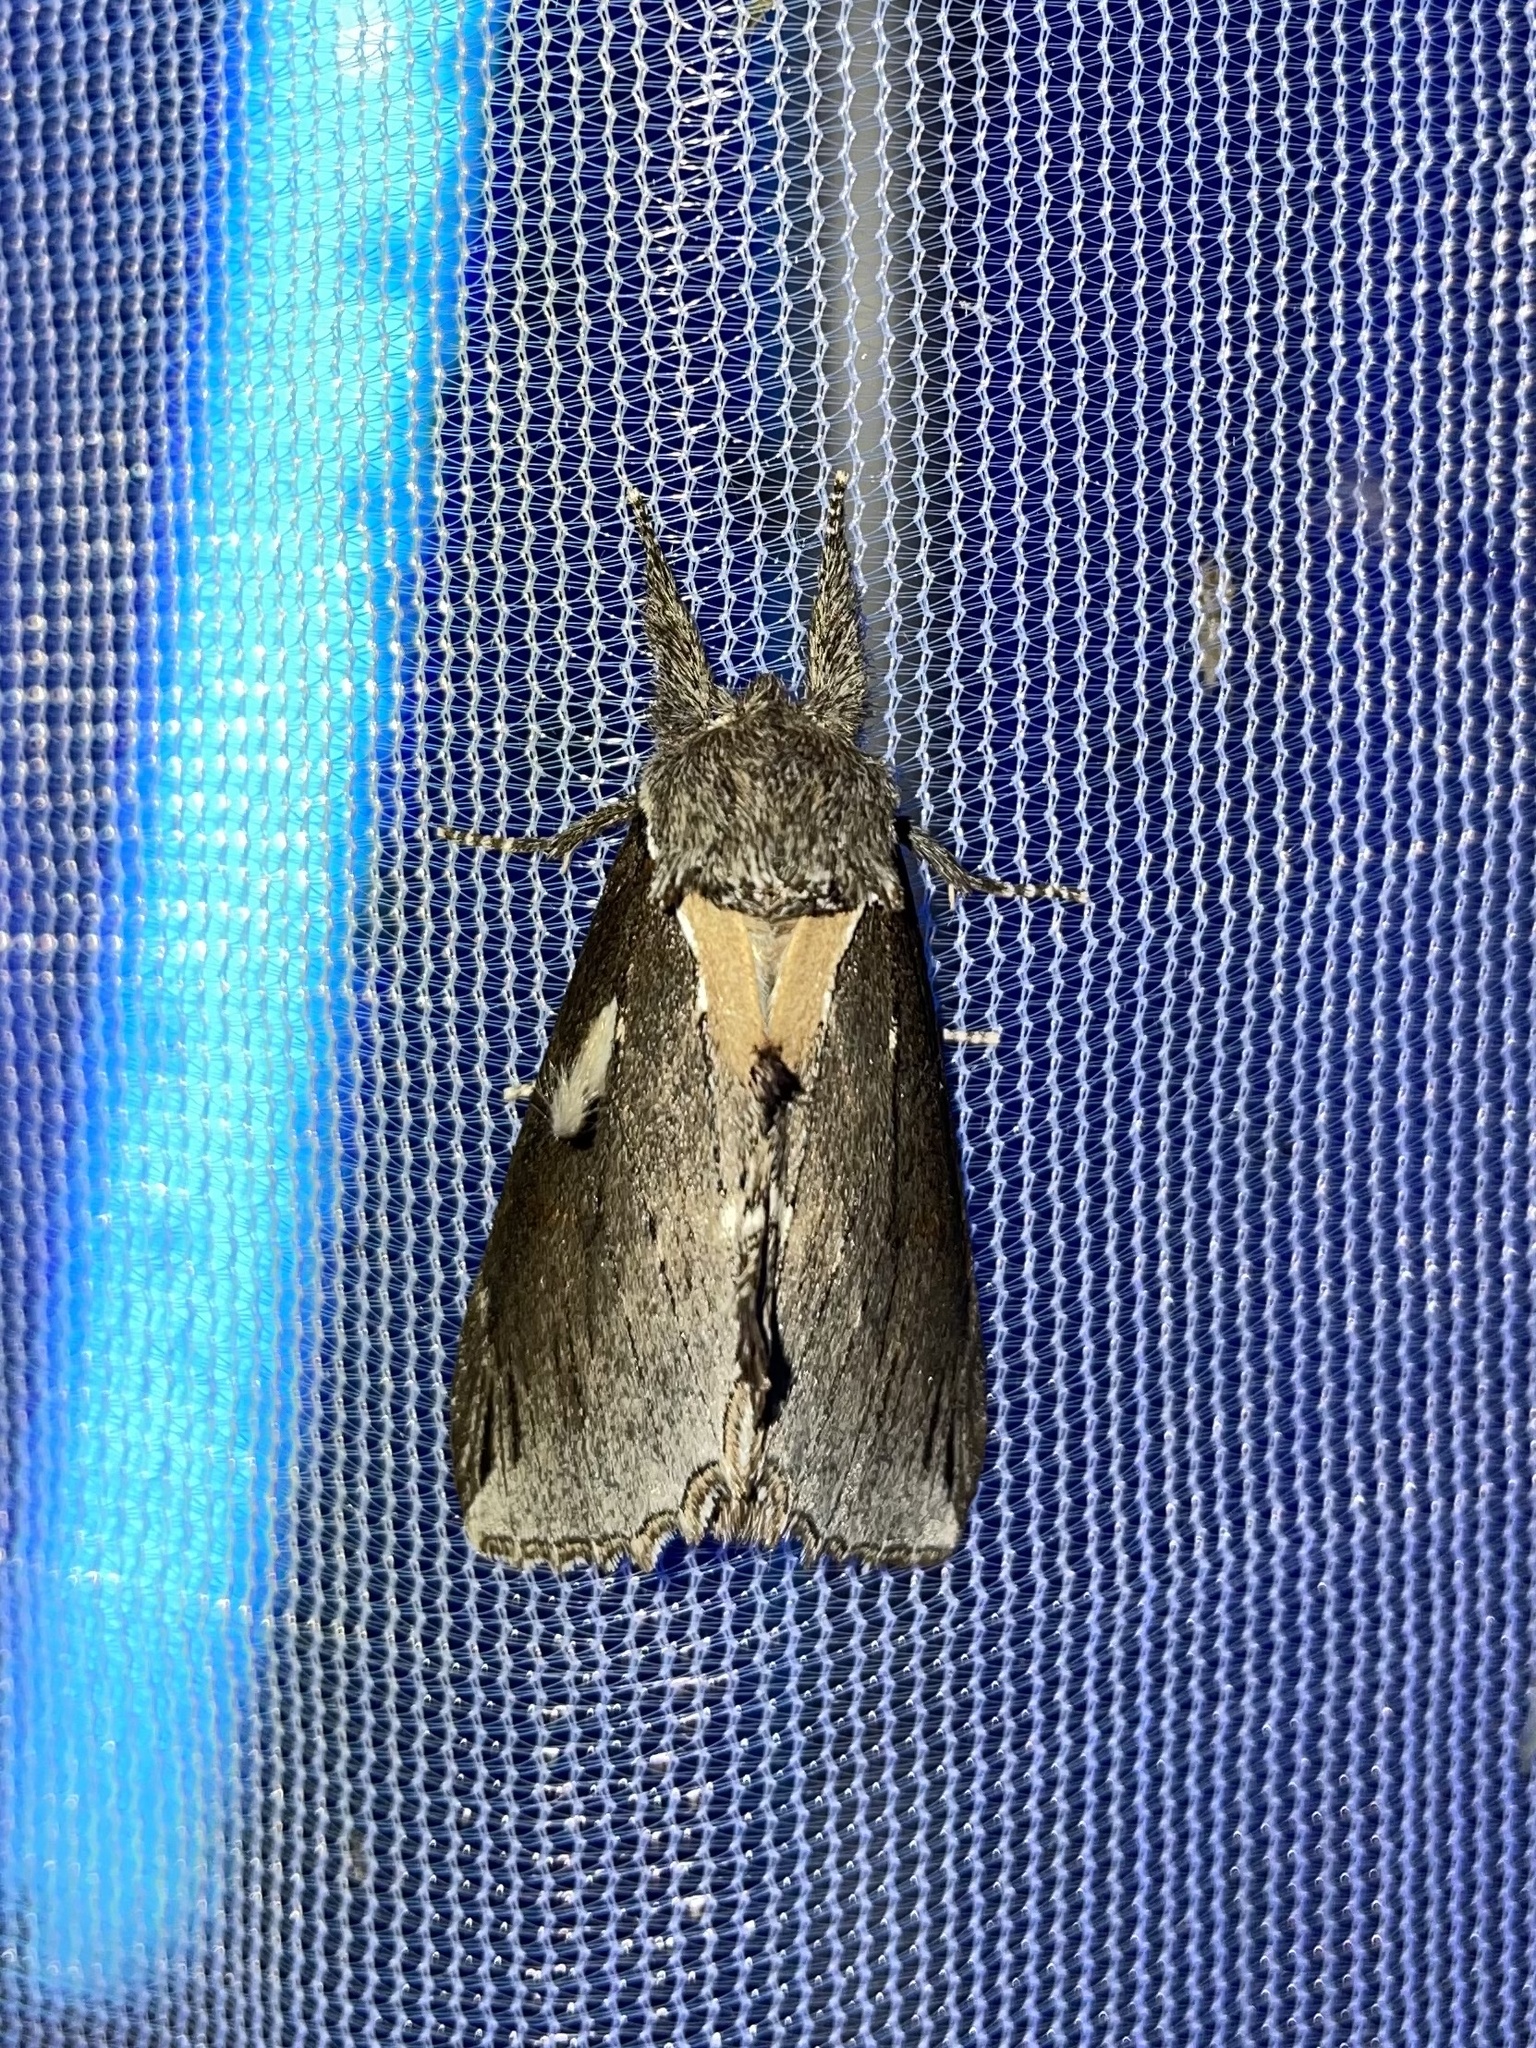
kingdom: Animalia
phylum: Arthropoda
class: Insecta
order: Lepidoptera
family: Notodontidae
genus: Pheosidea
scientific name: Pheosidea elegans
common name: Elegant prominent
